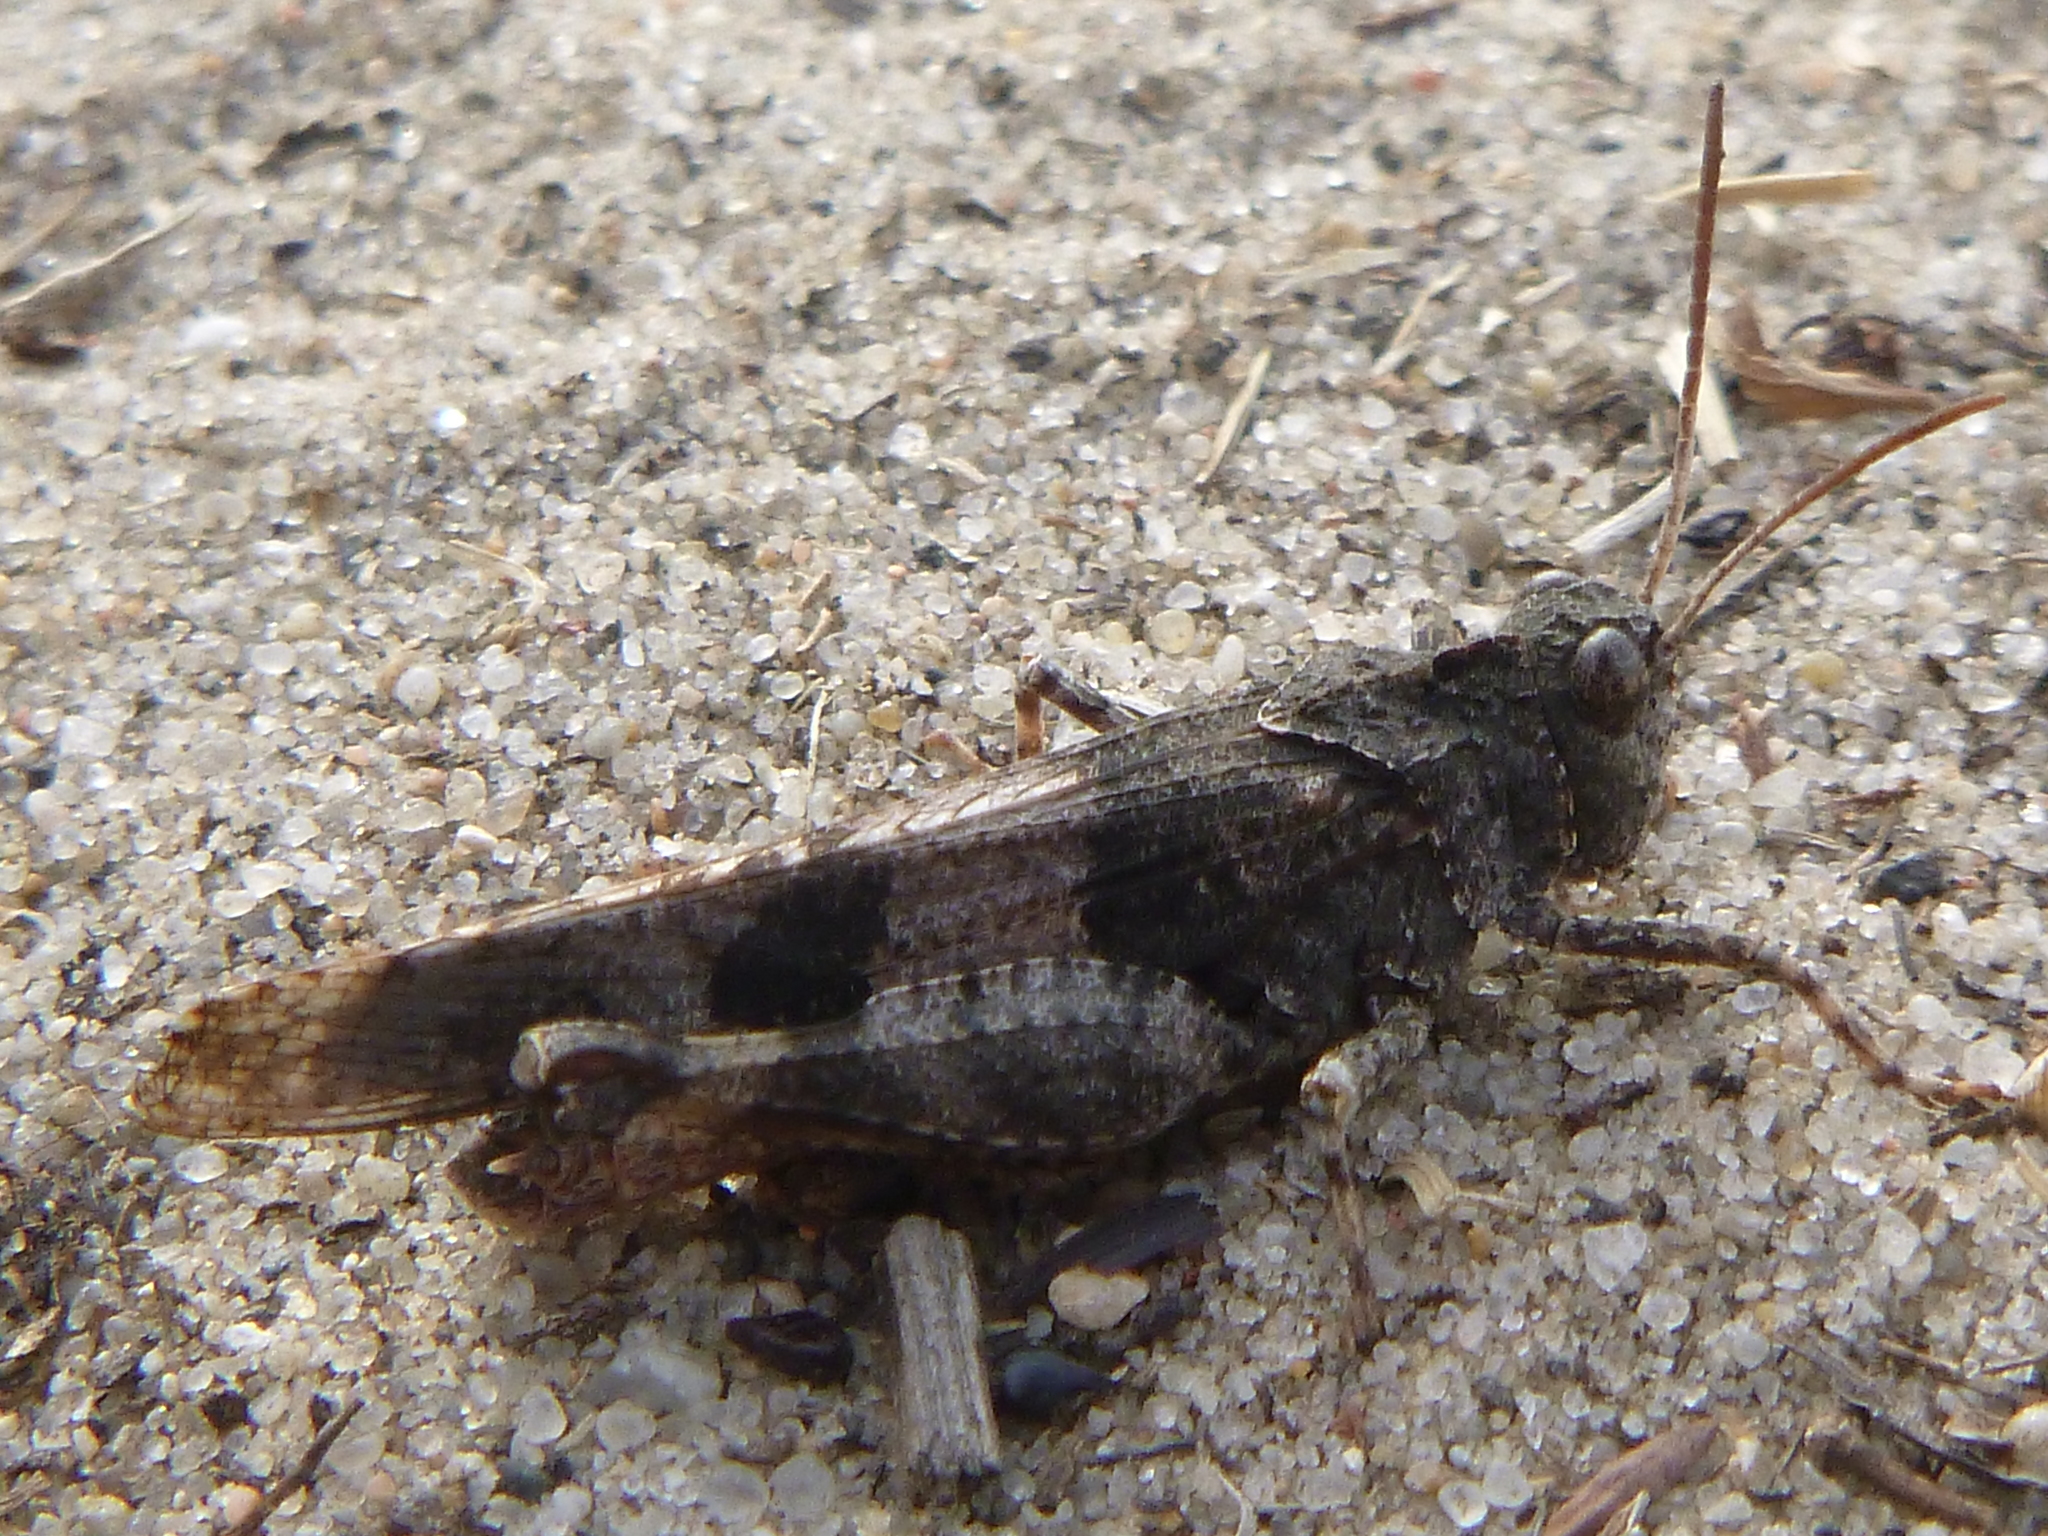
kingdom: Animalia
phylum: Arthropoda
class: Insecta
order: Orthoptera
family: Acrididae
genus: Oedipoda
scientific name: Oedipoda caerulescens
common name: Blue-winged grasshopper
